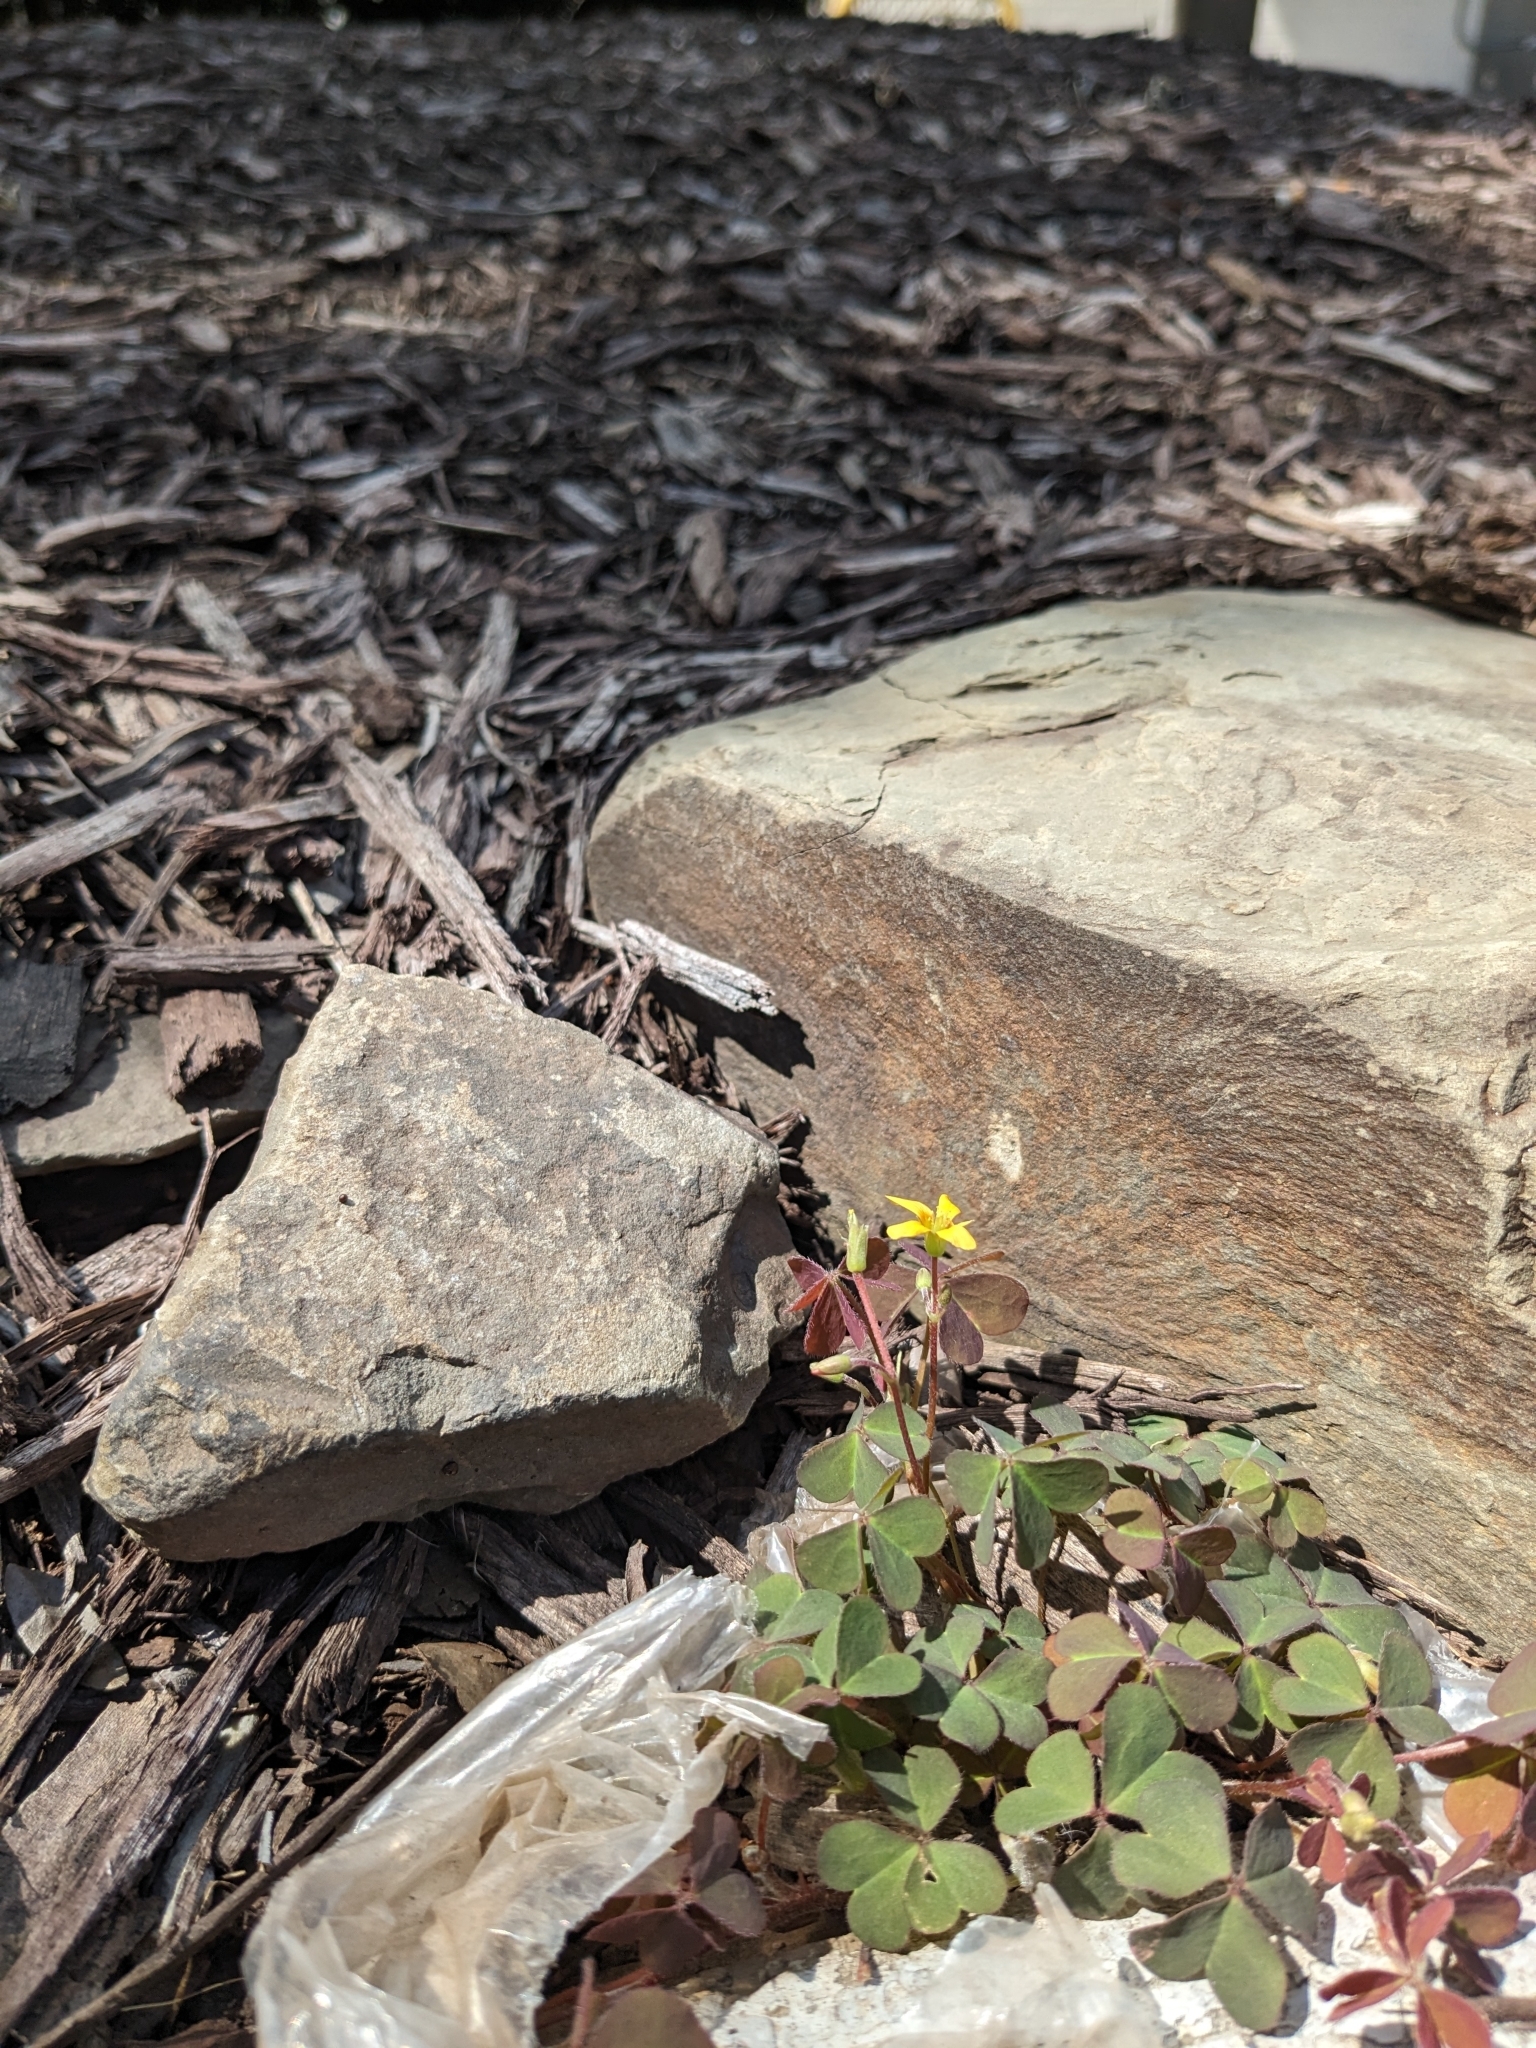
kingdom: Plantae
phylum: Tracheophyta
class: Magnoliopsida
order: Oxalidales
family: Oxalidaceae
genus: Oxalis
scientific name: Oxalis corniculata
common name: Procumbent yellow-sorrel
